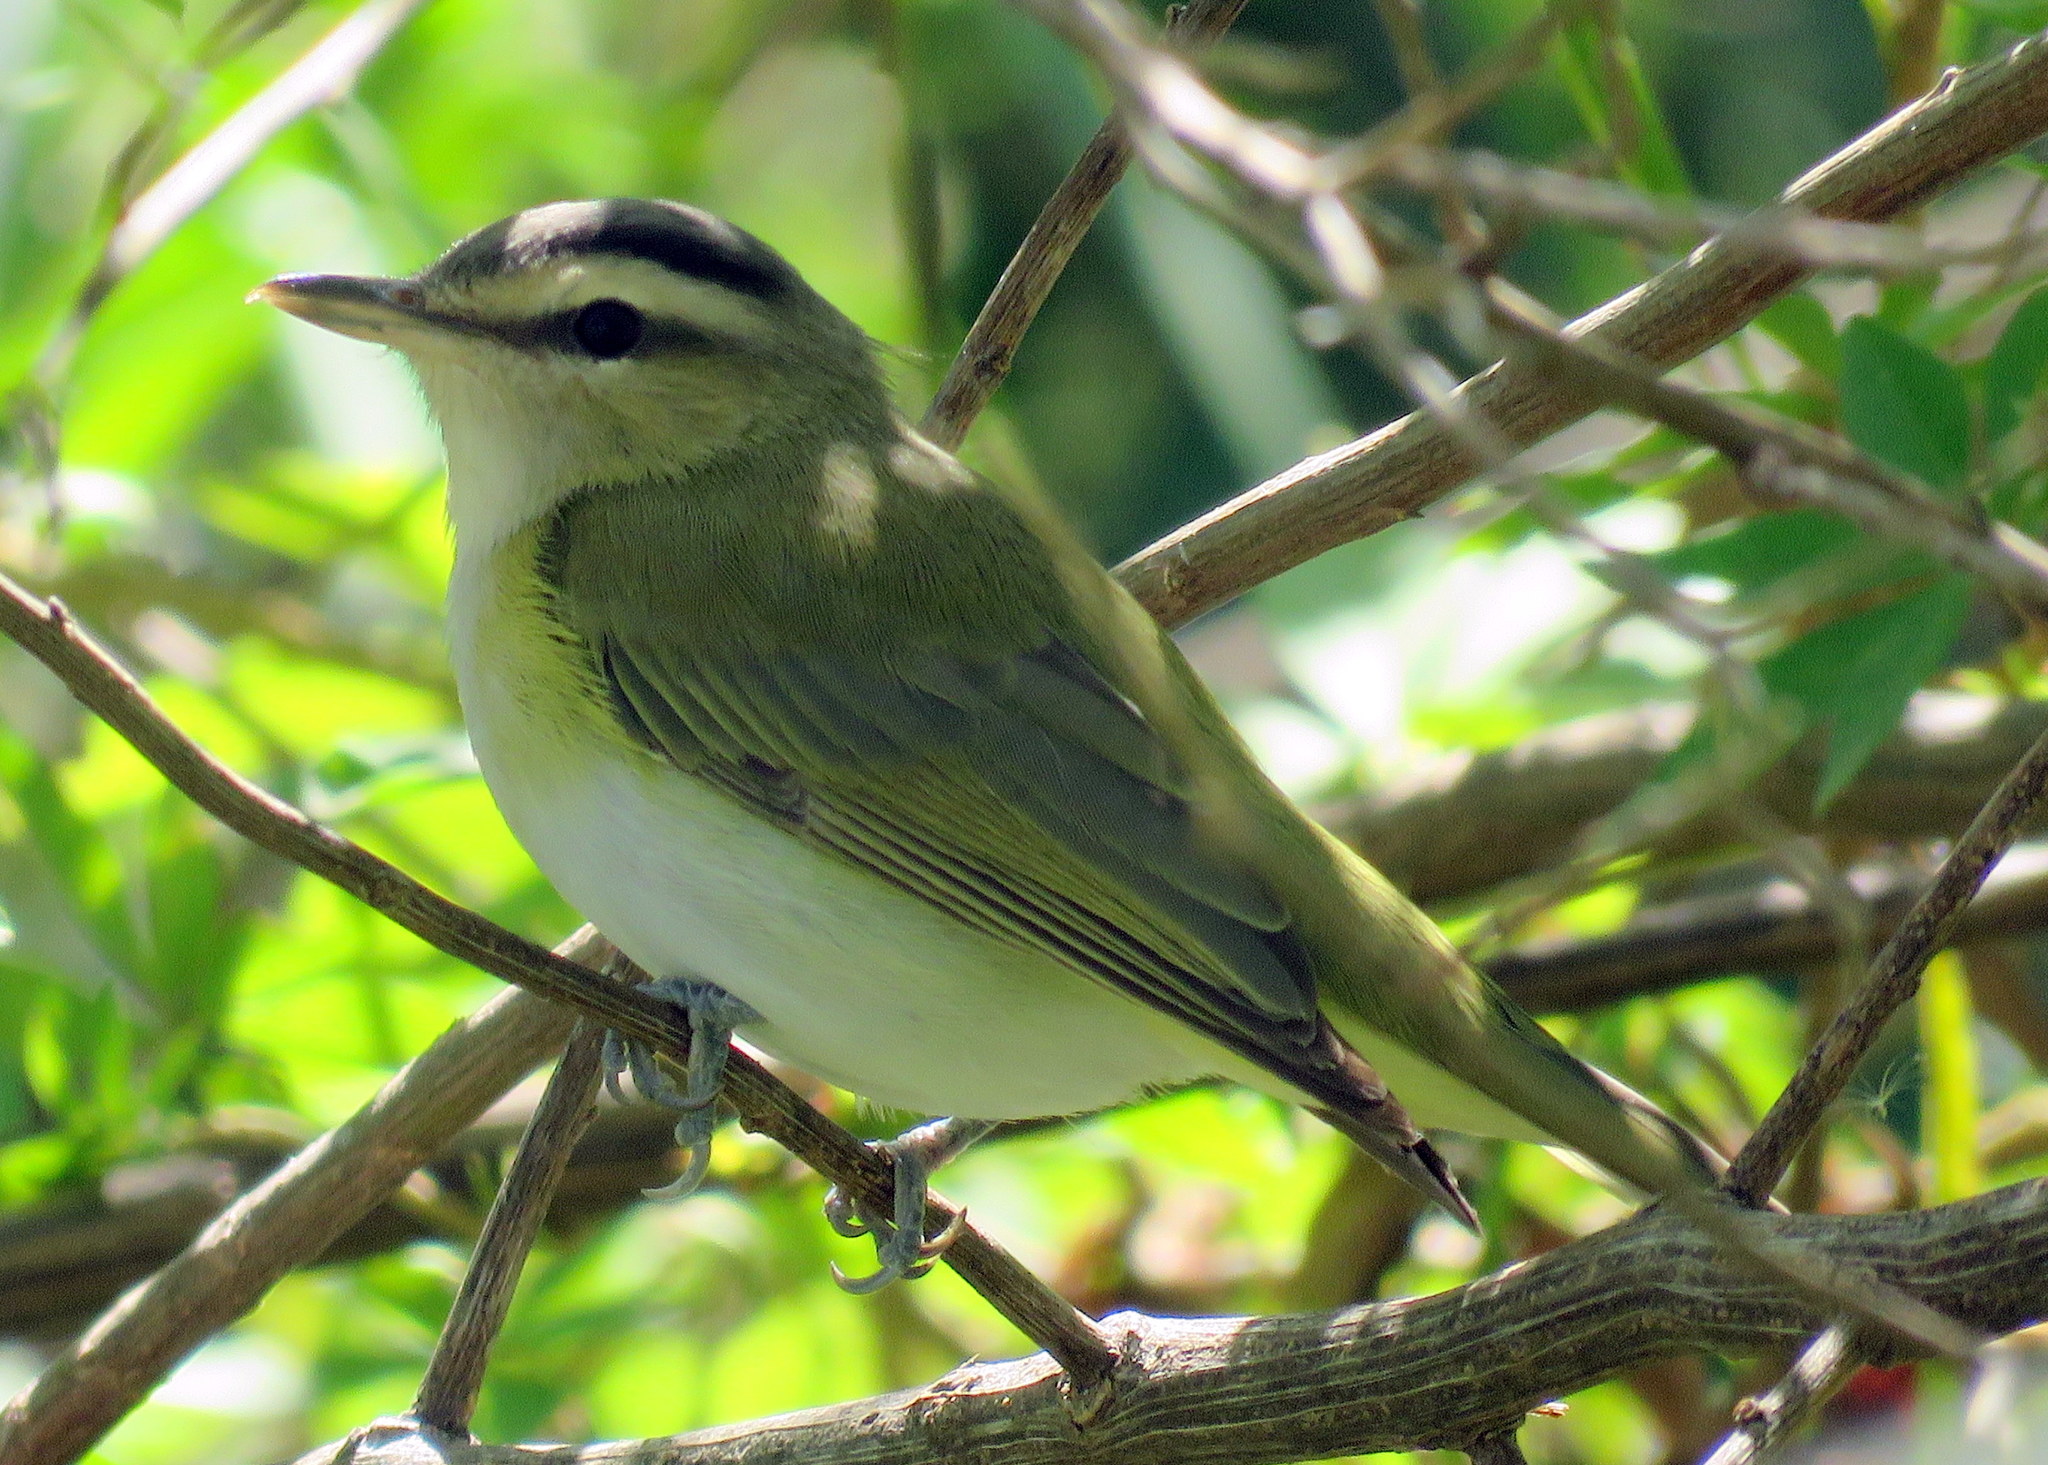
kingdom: Animalia
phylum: Chordata
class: Aves
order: Passeriformes
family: Vireonidae
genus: Vireo
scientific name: Vireo olivaceus
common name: Red-eyed vireo
